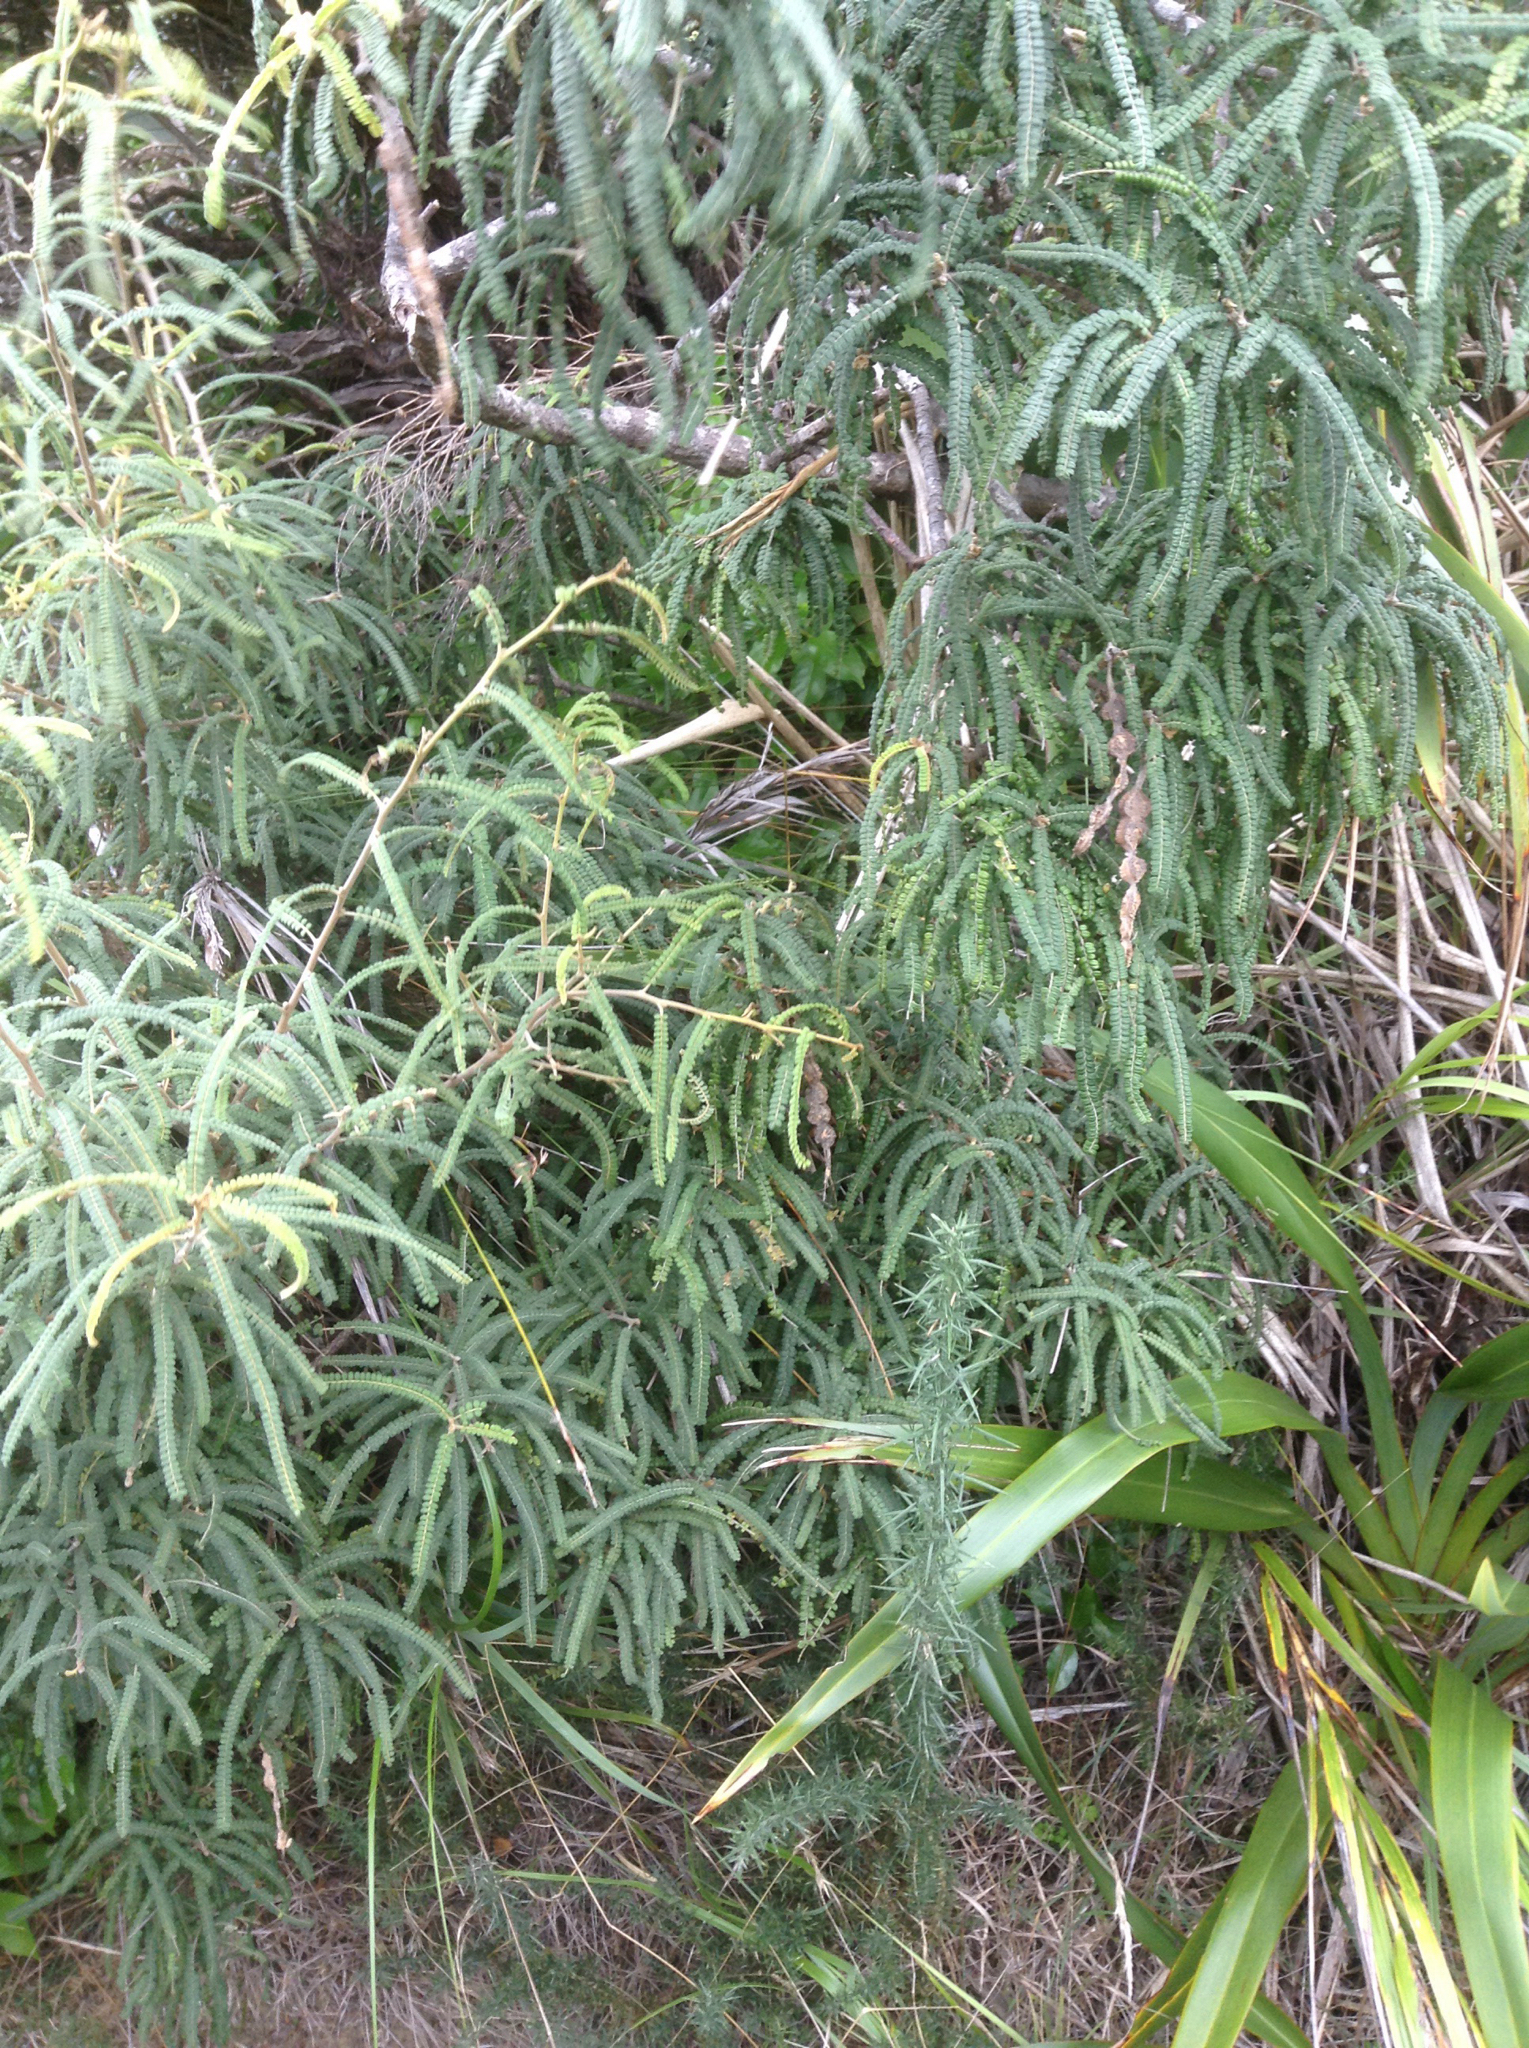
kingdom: Plantae
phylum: Tracheophyta
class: Magnoliopsida
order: Fabales
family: Fabaceae
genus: Sophora
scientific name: Sophora fulvida
